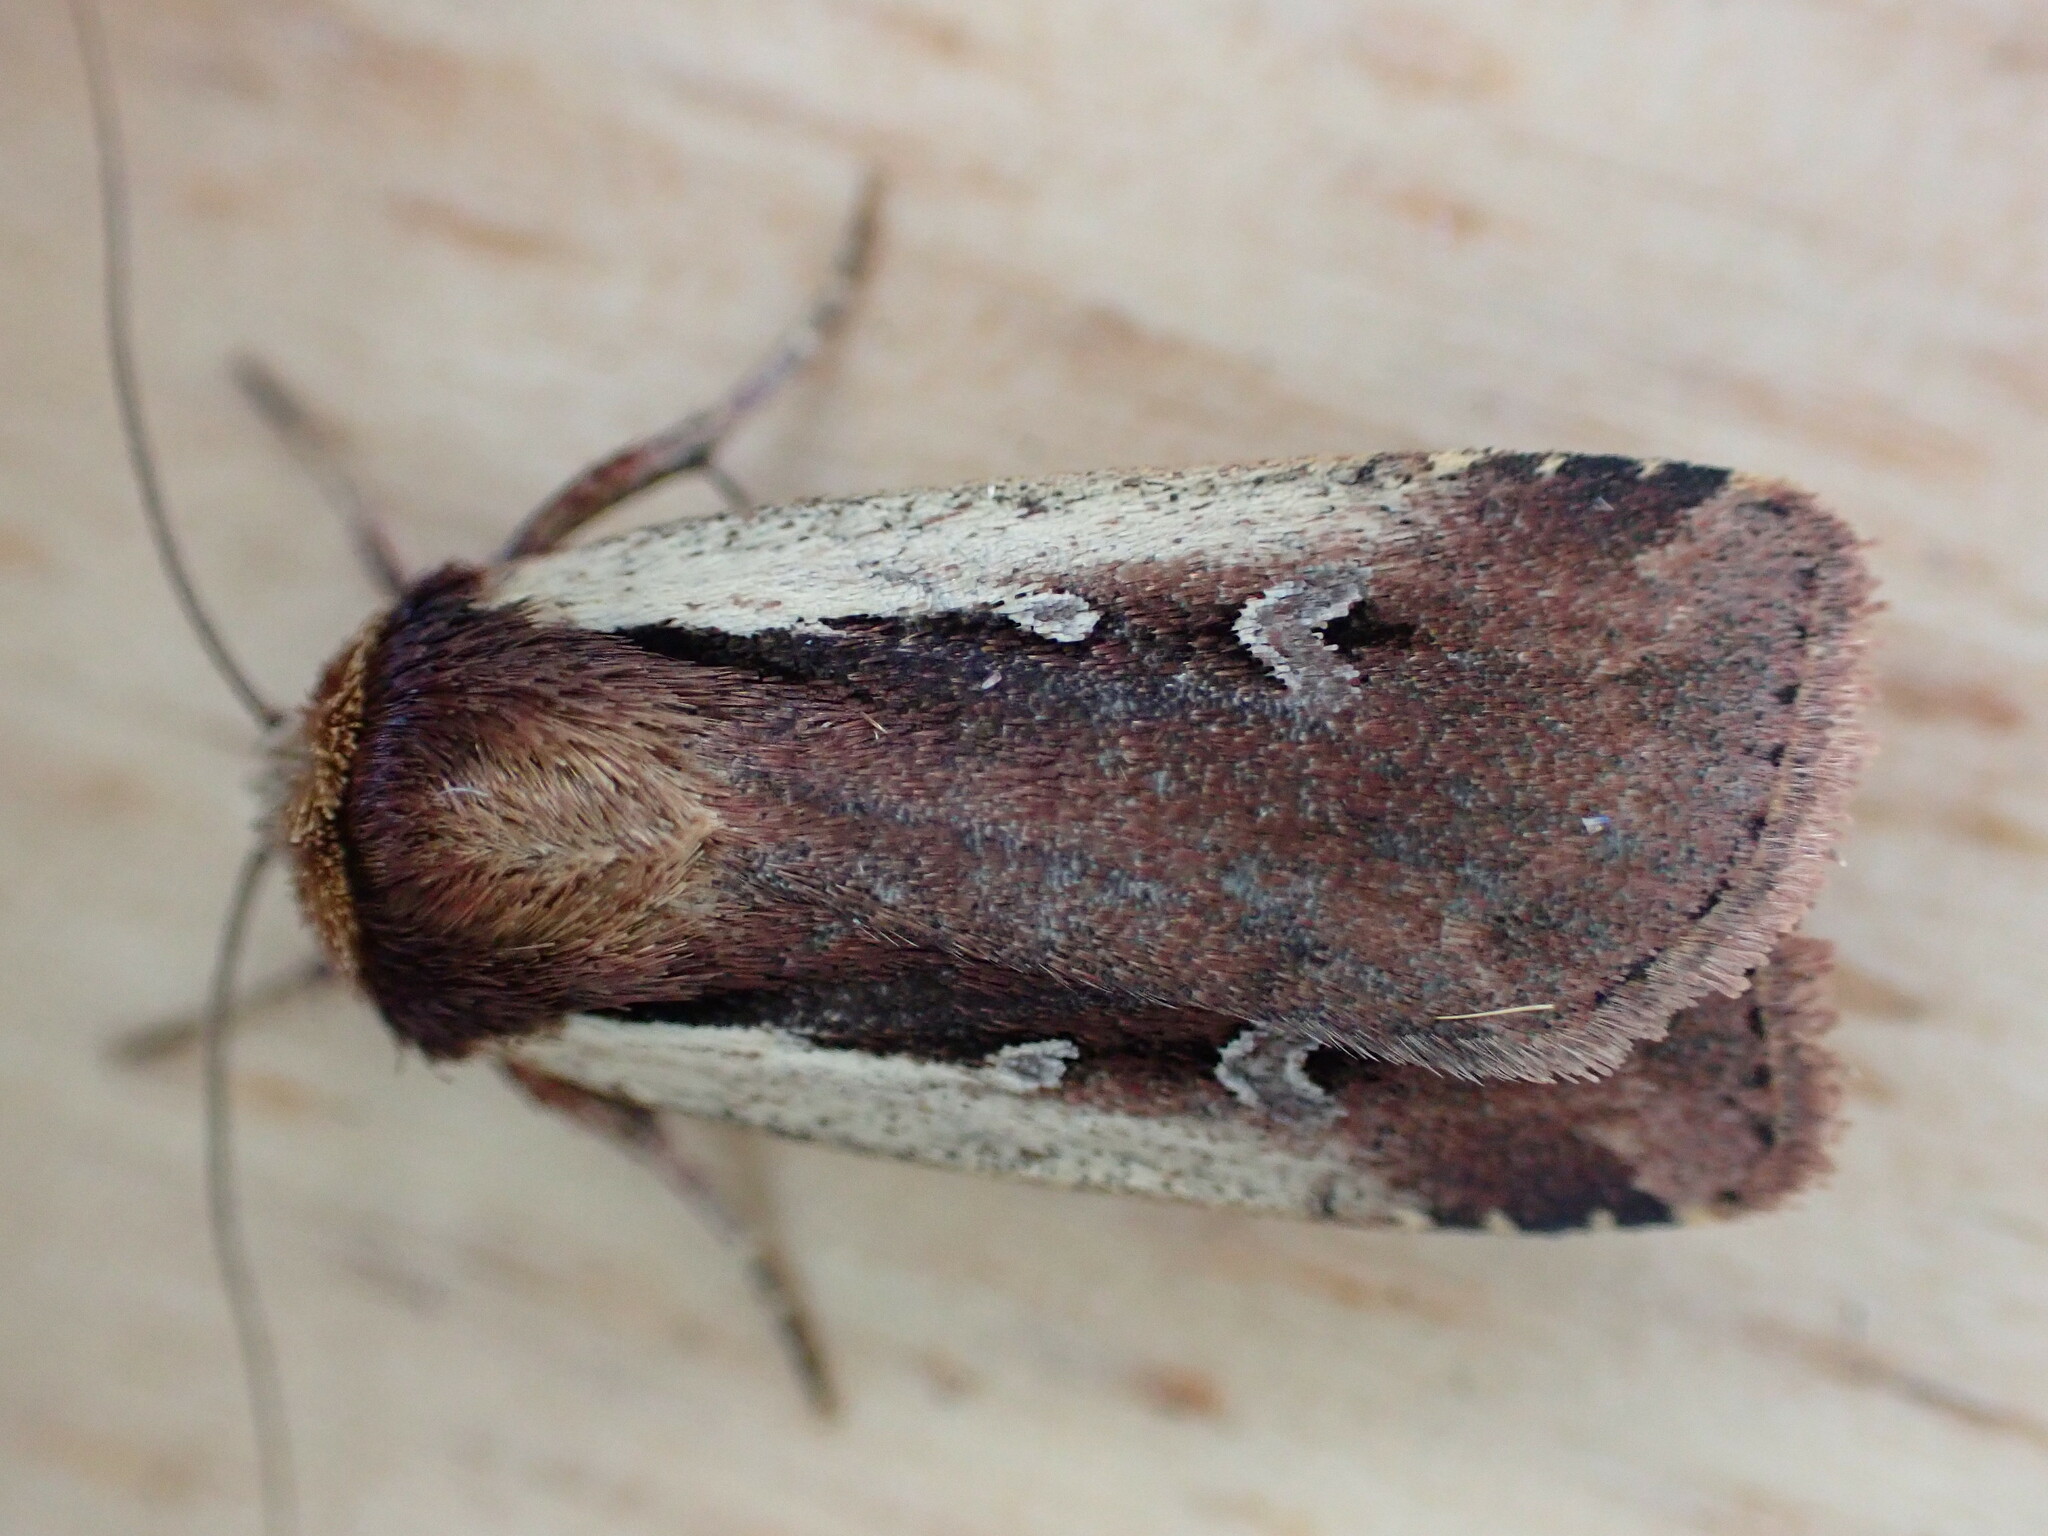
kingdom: Animalia
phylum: Arthropoda
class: Insecta
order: Lepidoptera
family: Noctuidae
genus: Ochropleura
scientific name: Ochropleura plecta
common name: Flame shoulder
